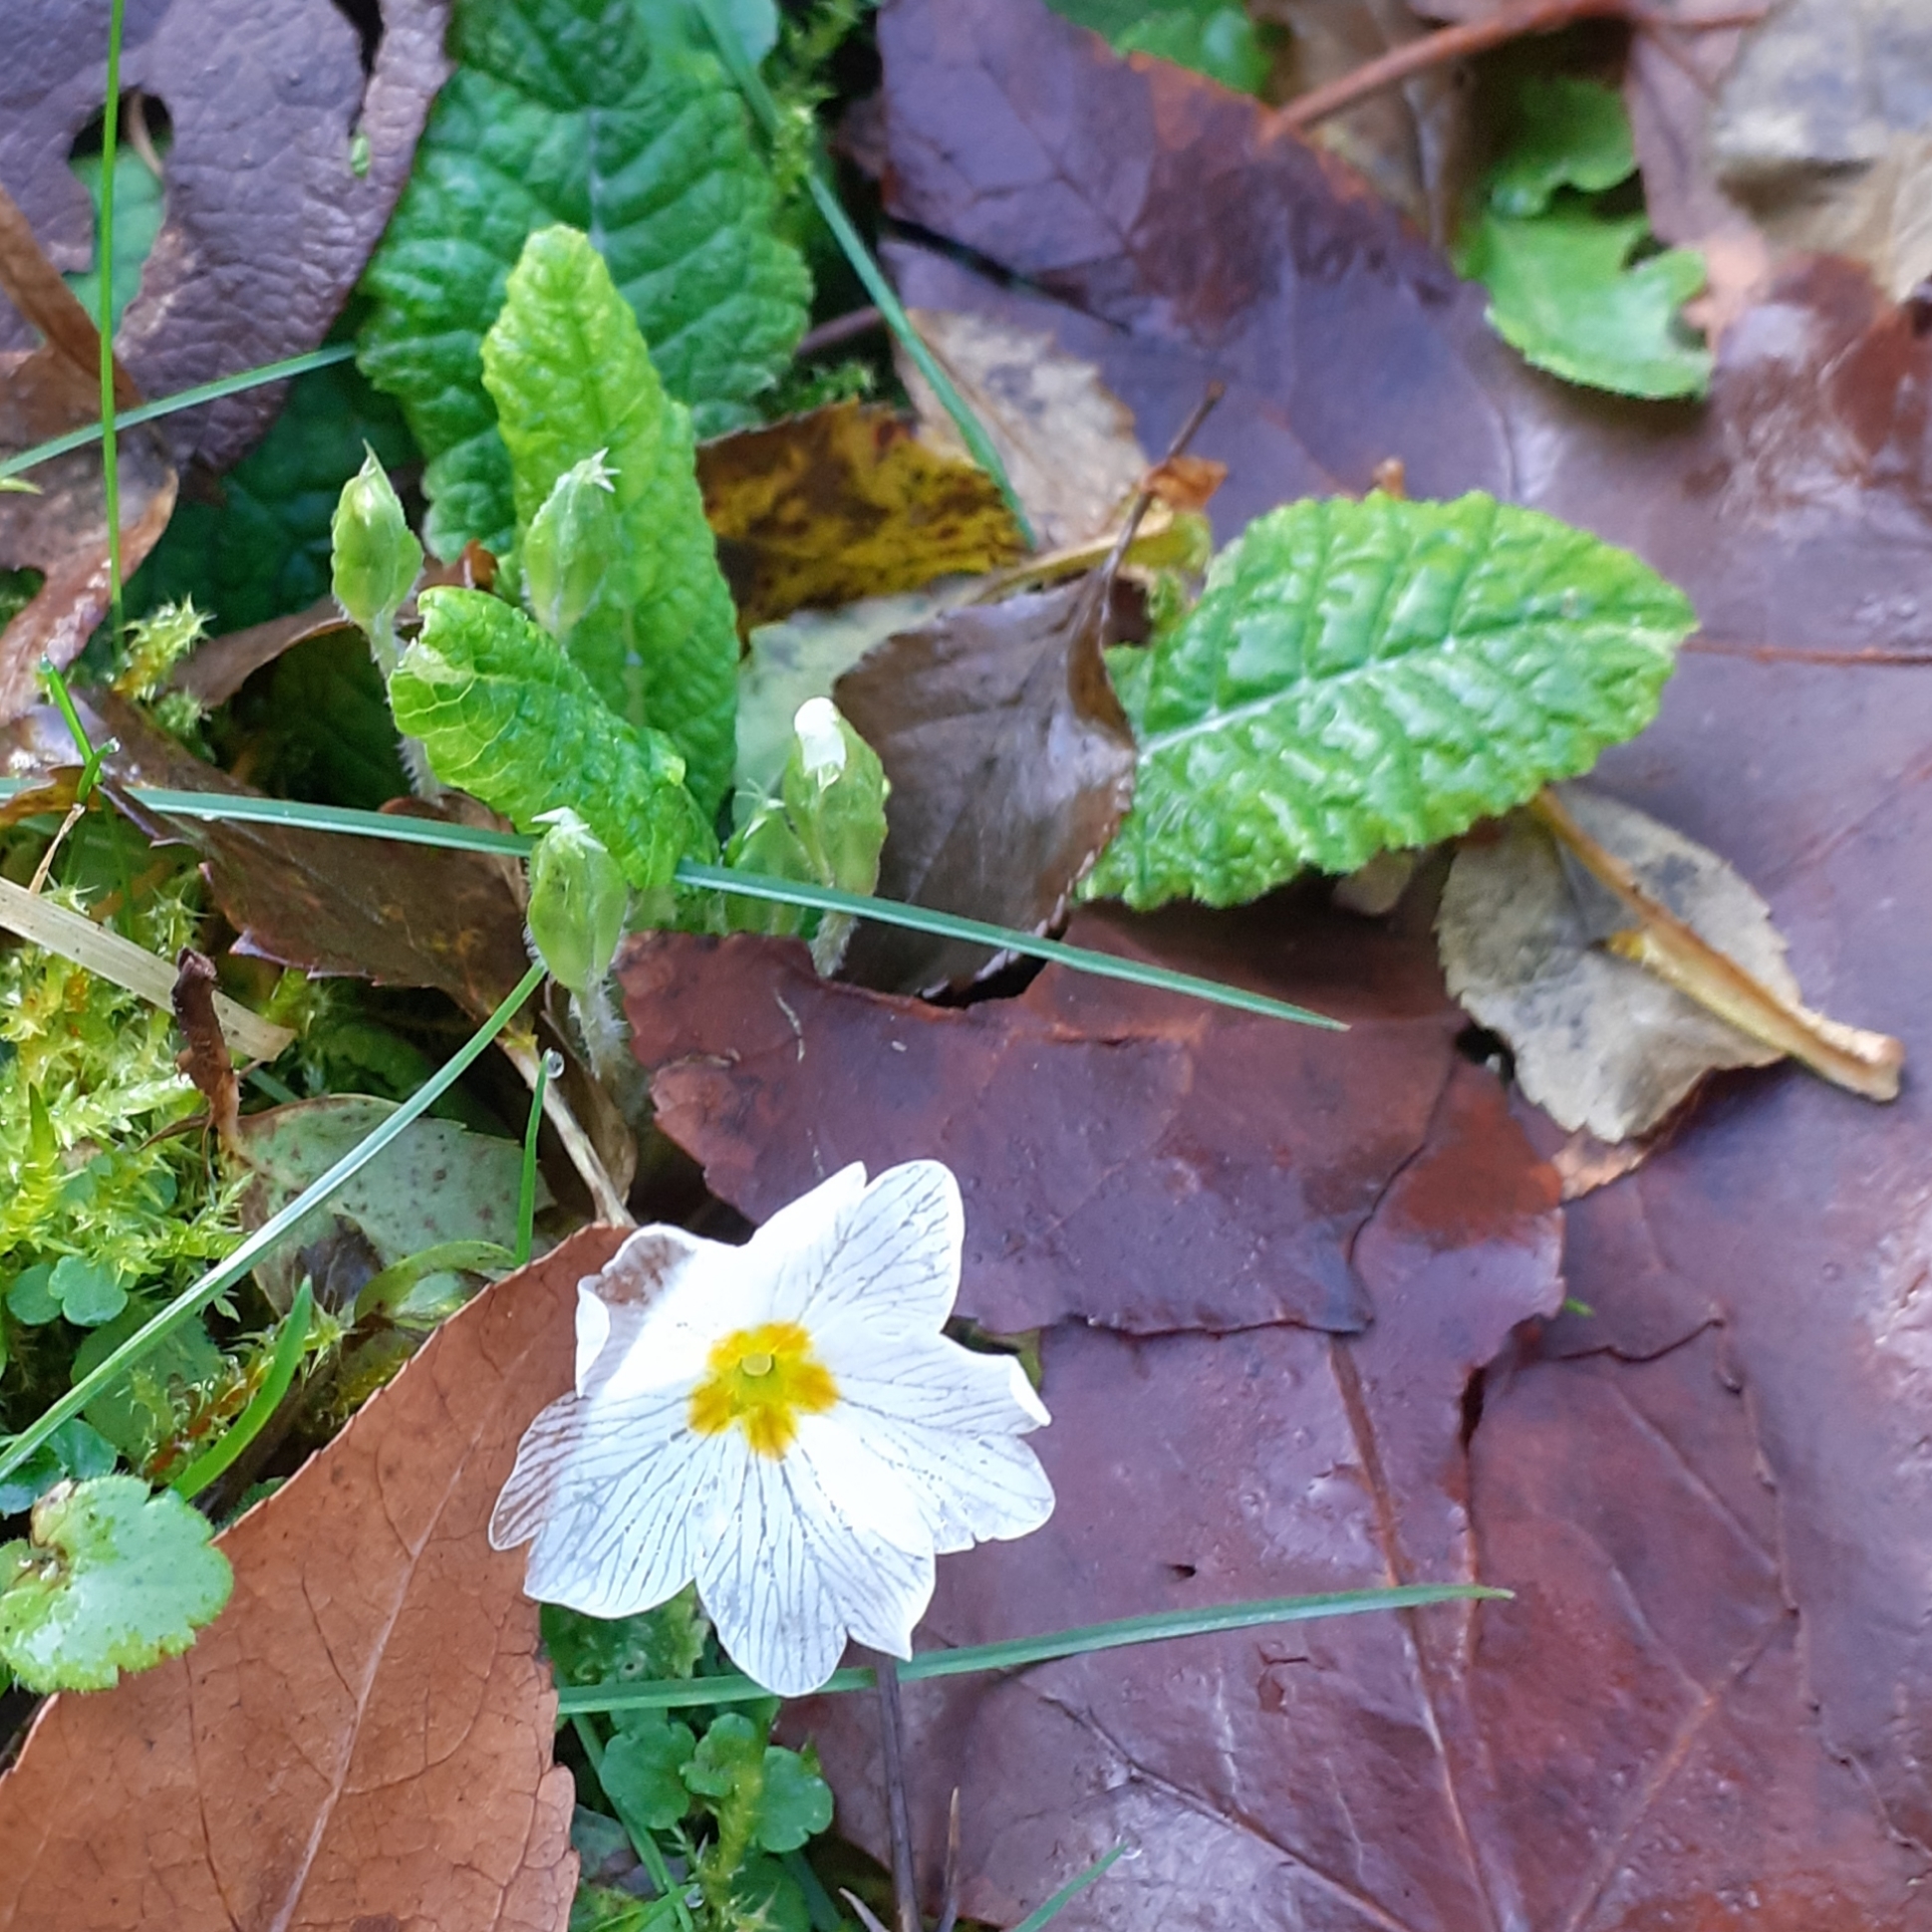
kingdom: Plantae
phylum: Tracheophyta
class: Magnoliopsida
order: Ericales
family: Primulaceae
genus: Primula
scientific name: Primula vulgaris
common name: Primrose
